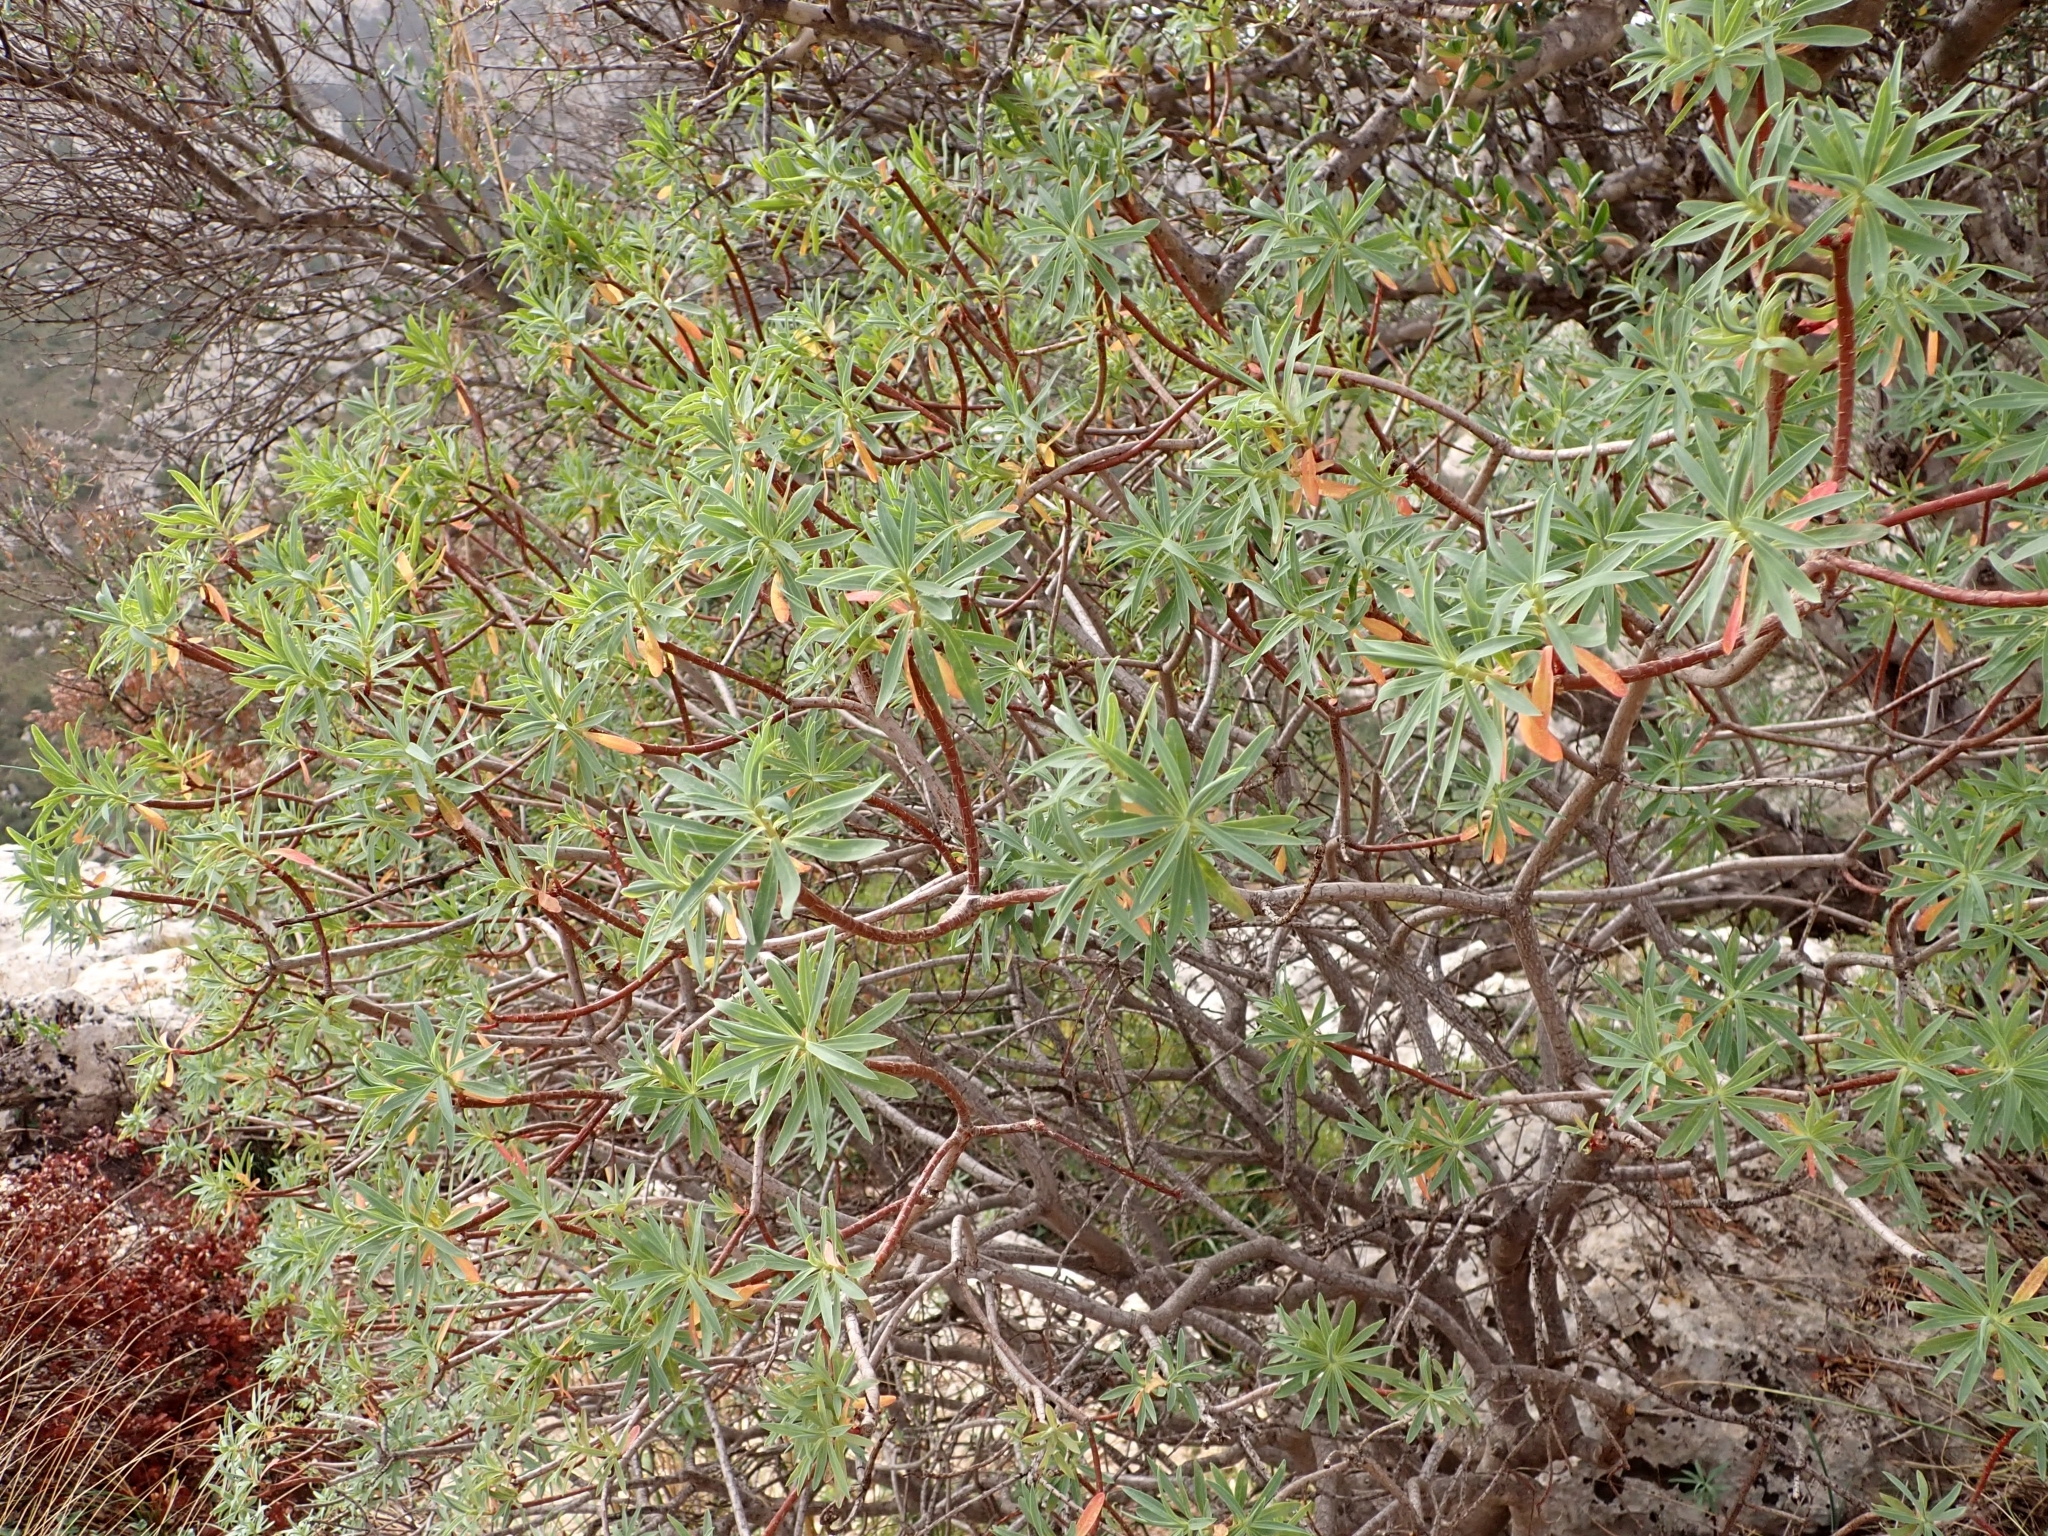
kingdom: Plantae
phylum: Tracheophyta
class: Magnoliopsida
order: Malpighiales
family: Euphorbiaceae
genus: Euphorbia
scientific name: Euphorbia dendroides
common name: Tree spurge
